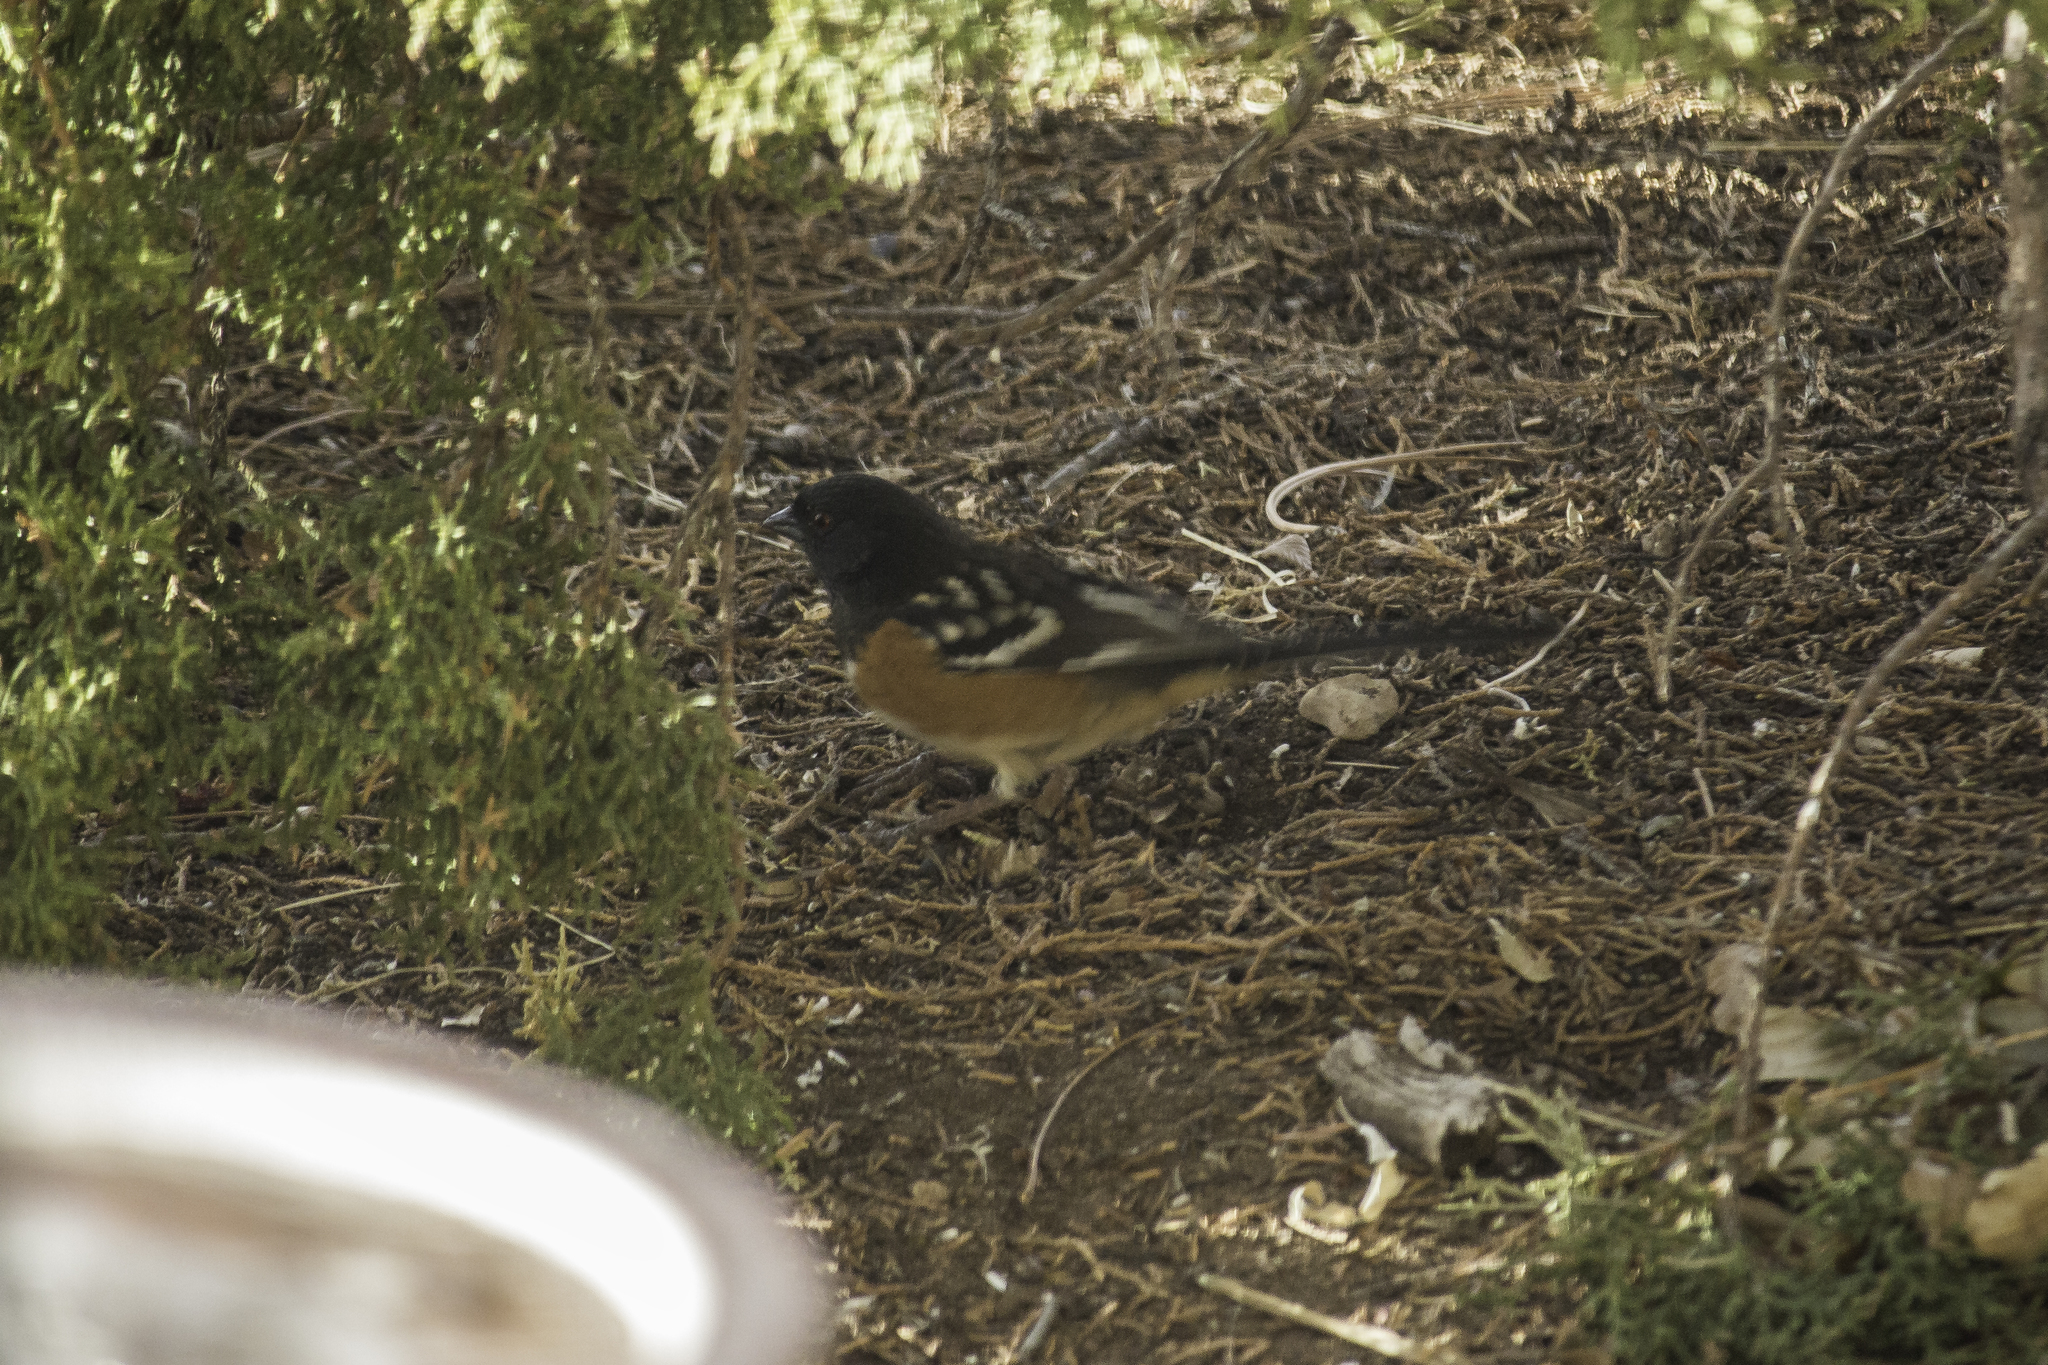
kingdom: Animalia
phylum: Chordata
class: Aves
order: Passeriformes
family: Passerellidae
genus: Pipilo
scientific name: Pipilo maculatus
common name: Spotted towhee
